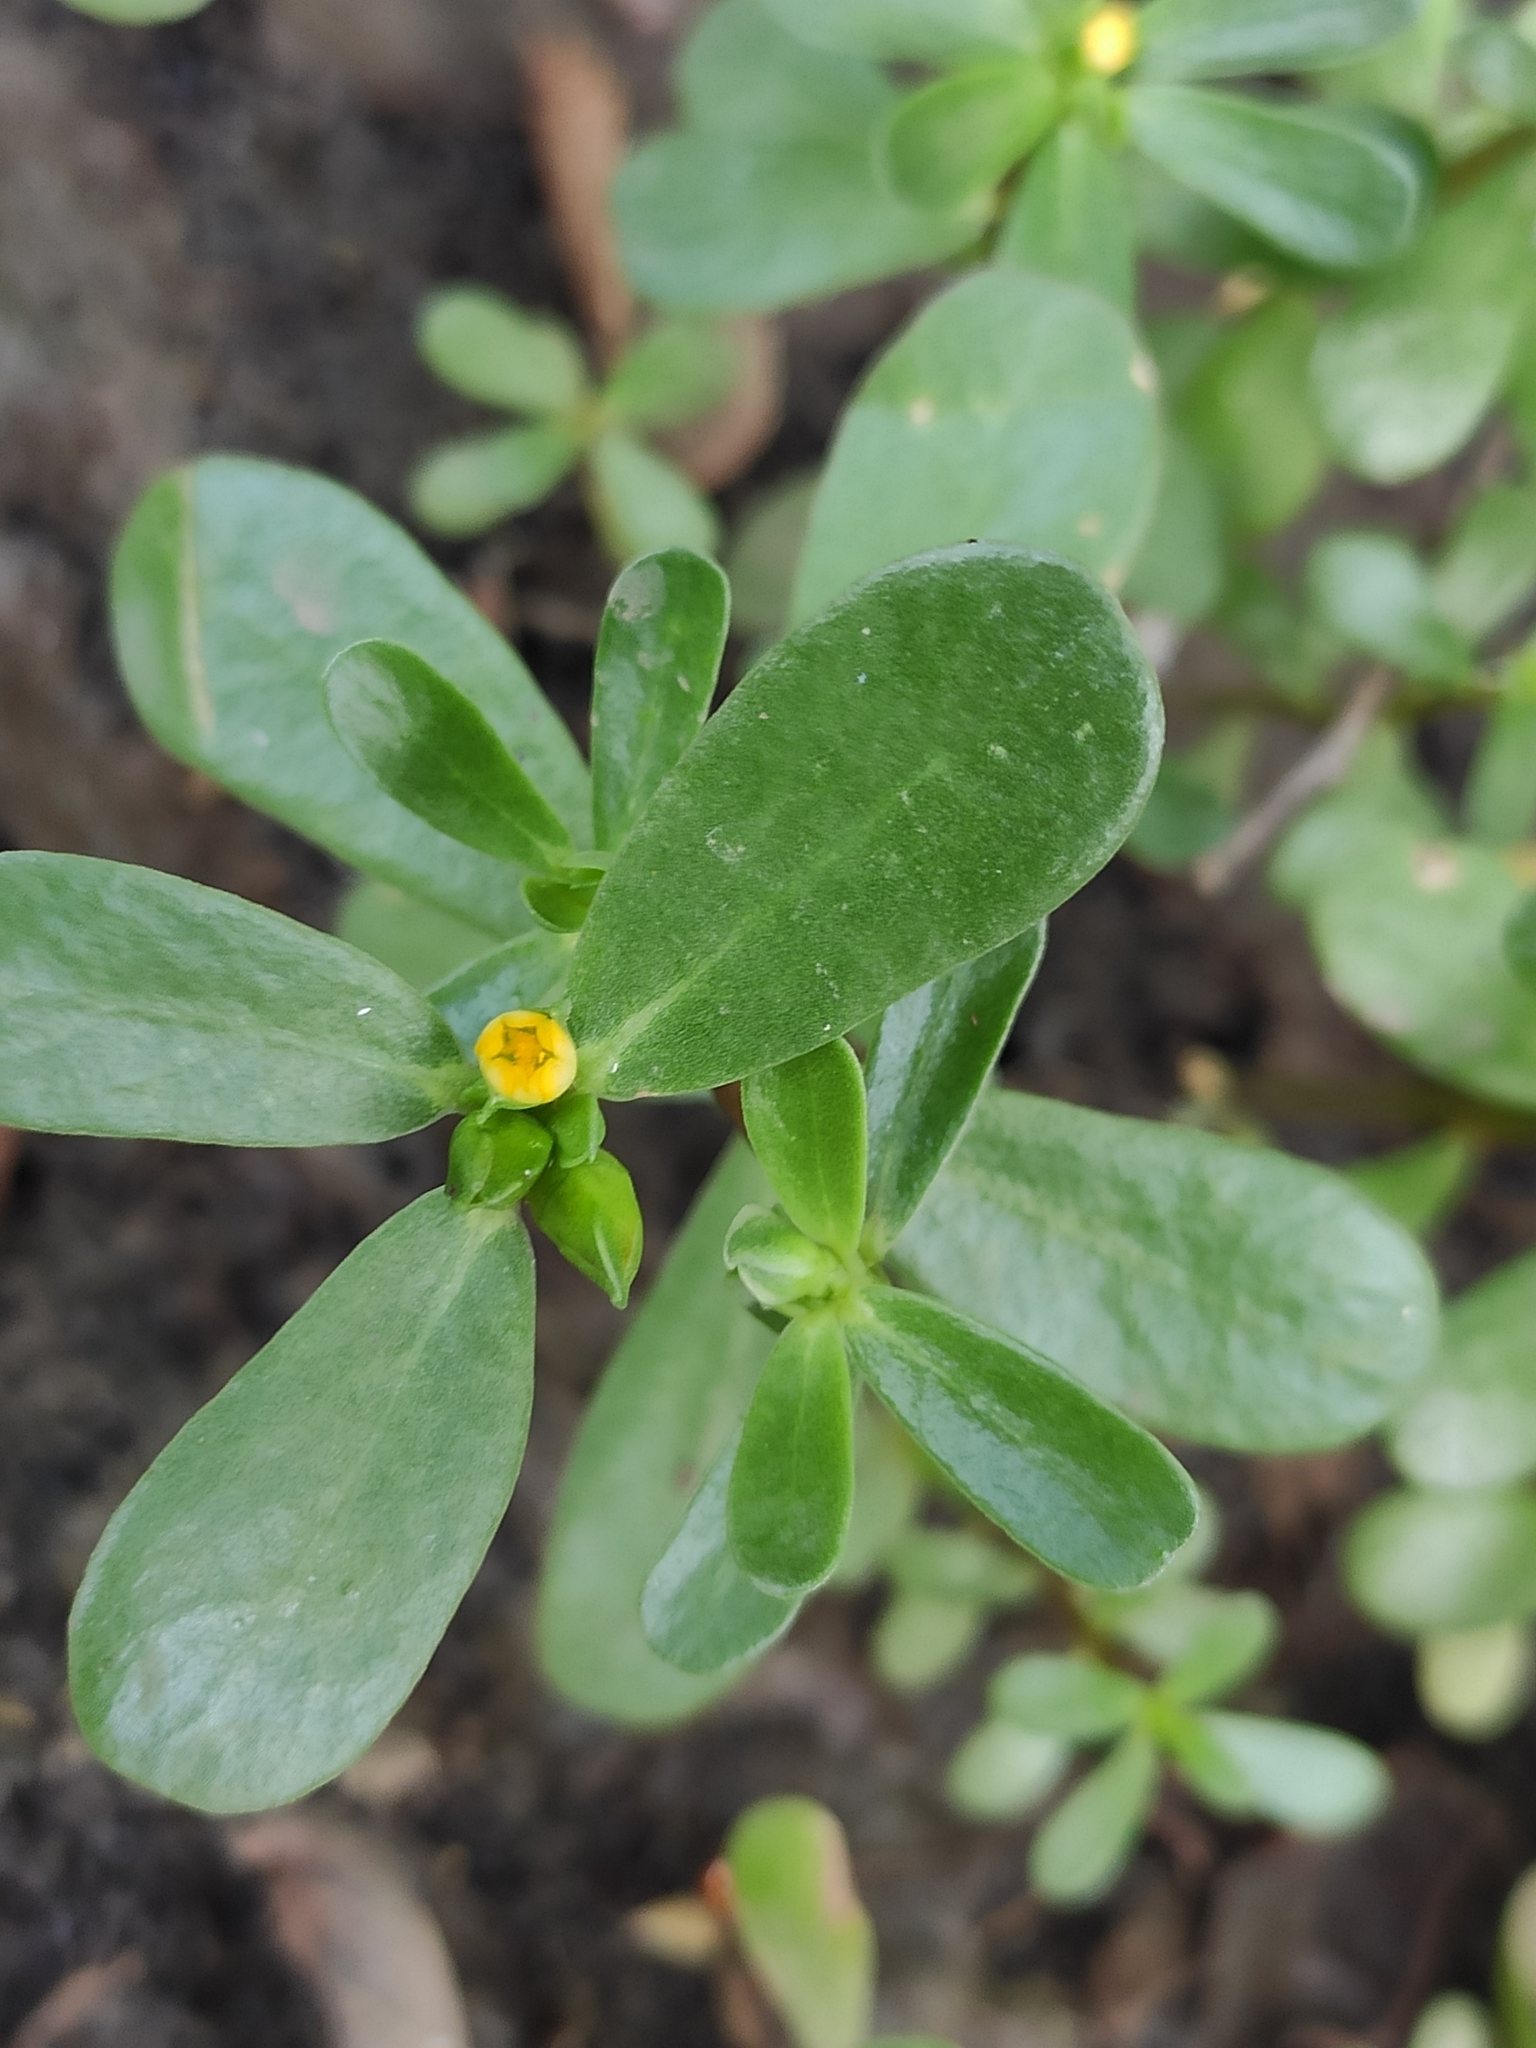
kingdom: Plantae
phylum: Tracheophyta
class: Magnoliopsida
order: Caryophyllales
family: Portulacaceae
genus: Portulaca
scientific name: Portulaca oleracea
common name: Common purslane
